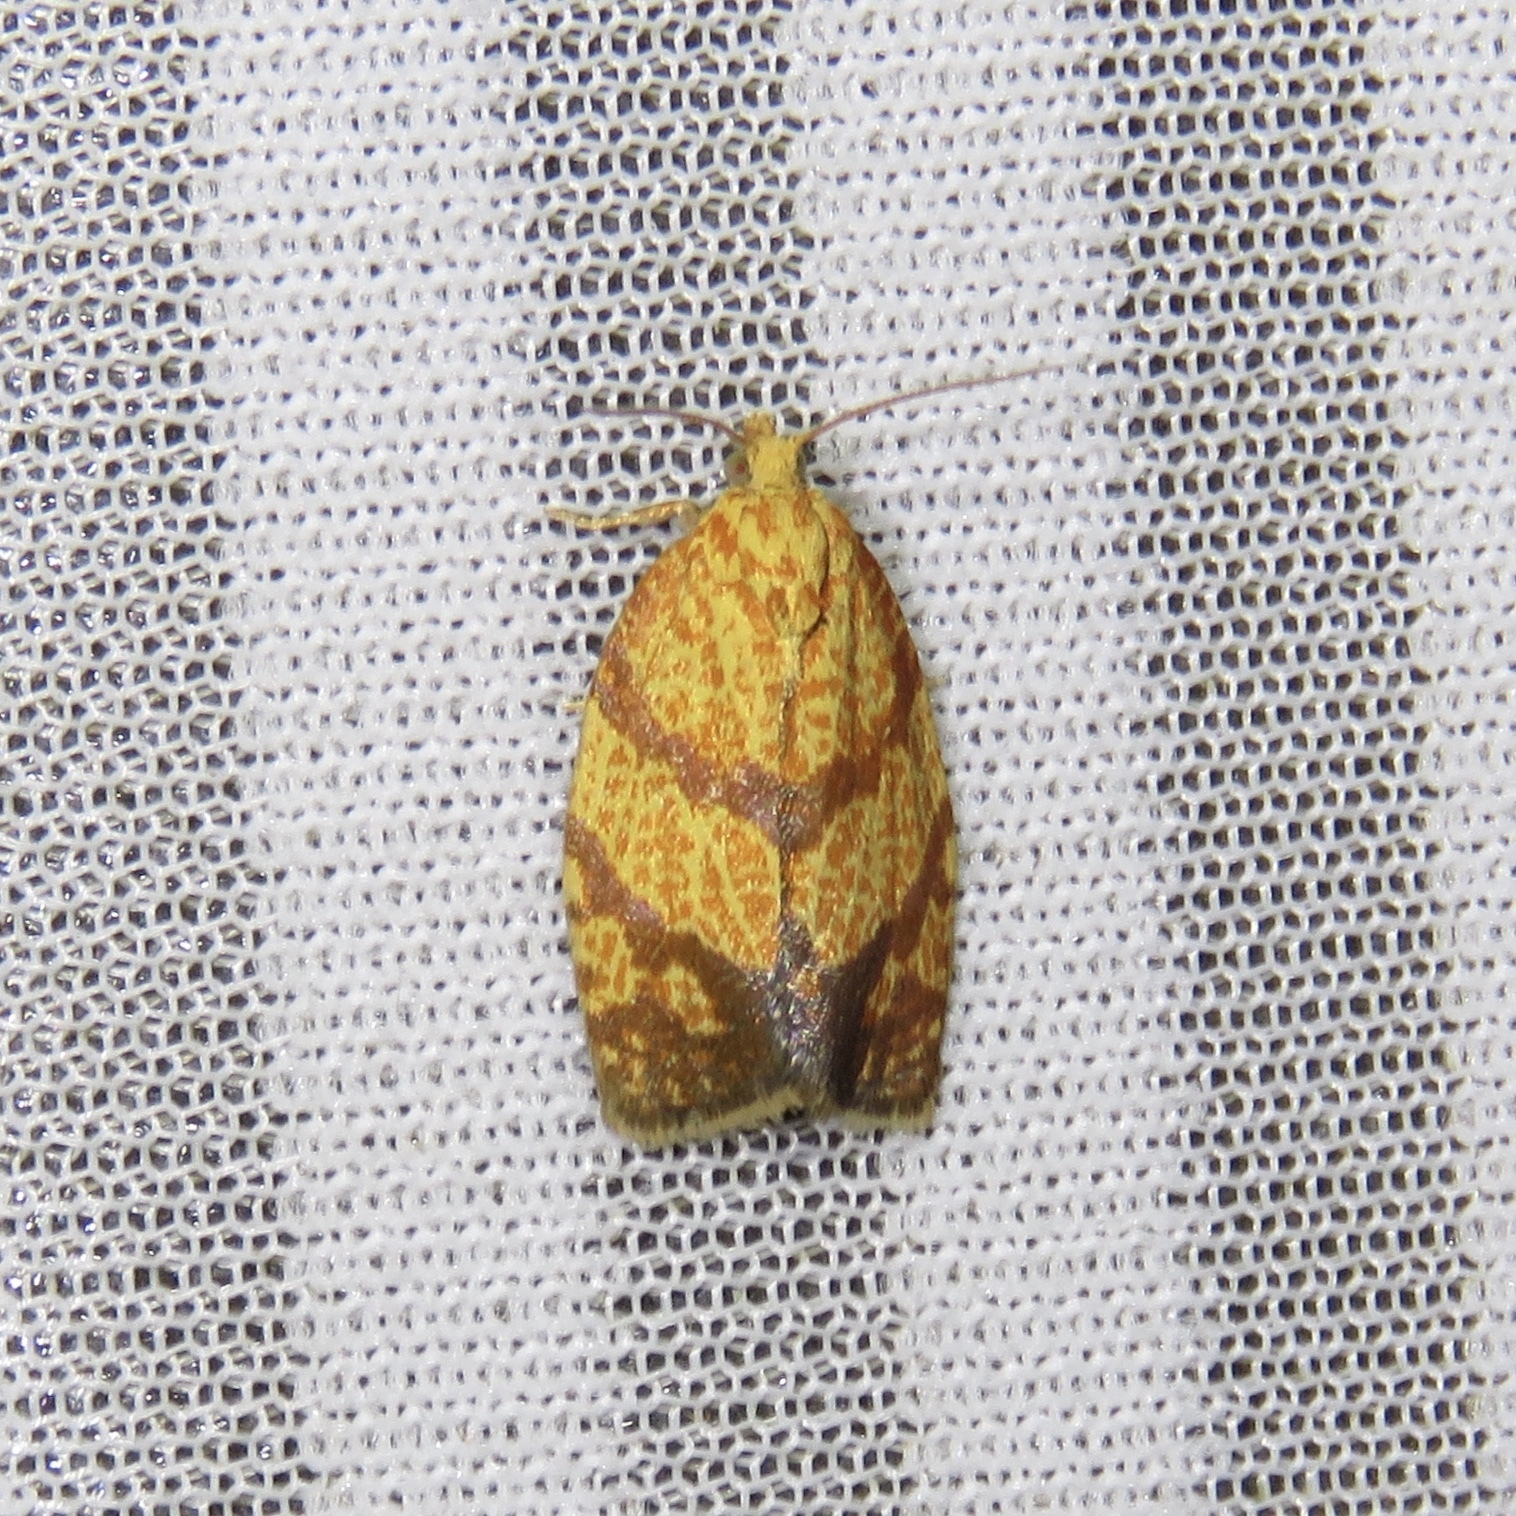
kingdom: Animalia
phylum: Arthropoda
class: Insecta
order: Lepidoptera
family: Tortricidae
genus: Argyrotaenia
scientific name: Argyrotaenia quadrifasciana
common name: Four-lined leafroller moth
